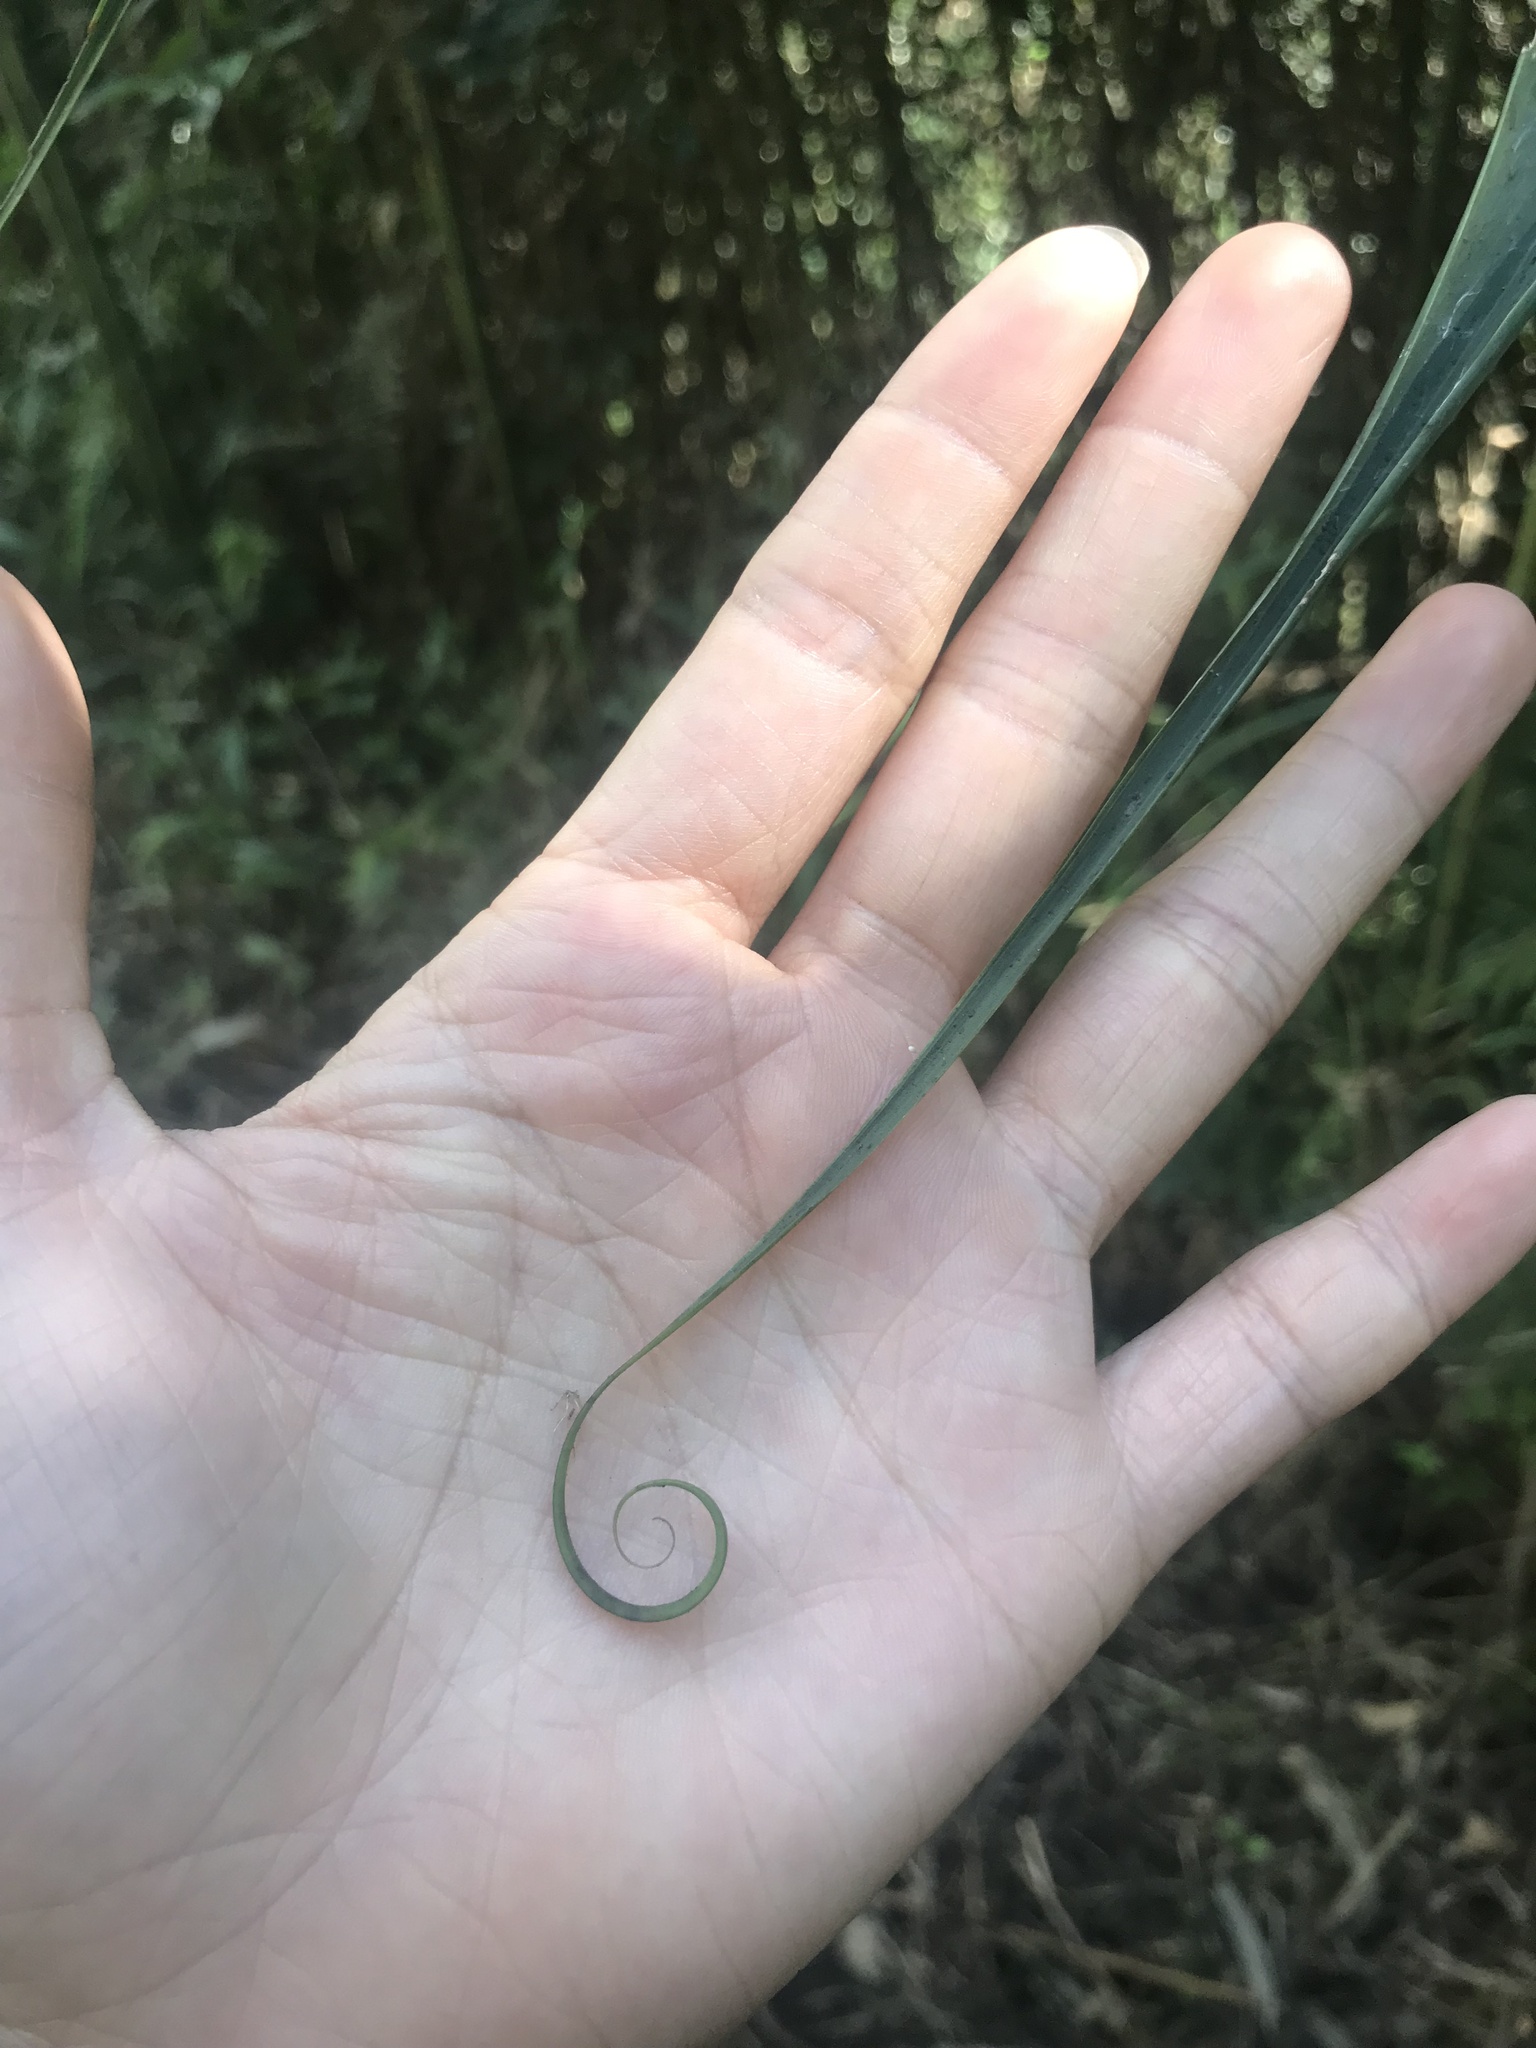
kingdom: Plantae
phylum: Tracheophyta
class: Liliopsida
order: Poales
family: Flagellariaceae
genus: Flagellaria
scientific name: Flagellaria indica
